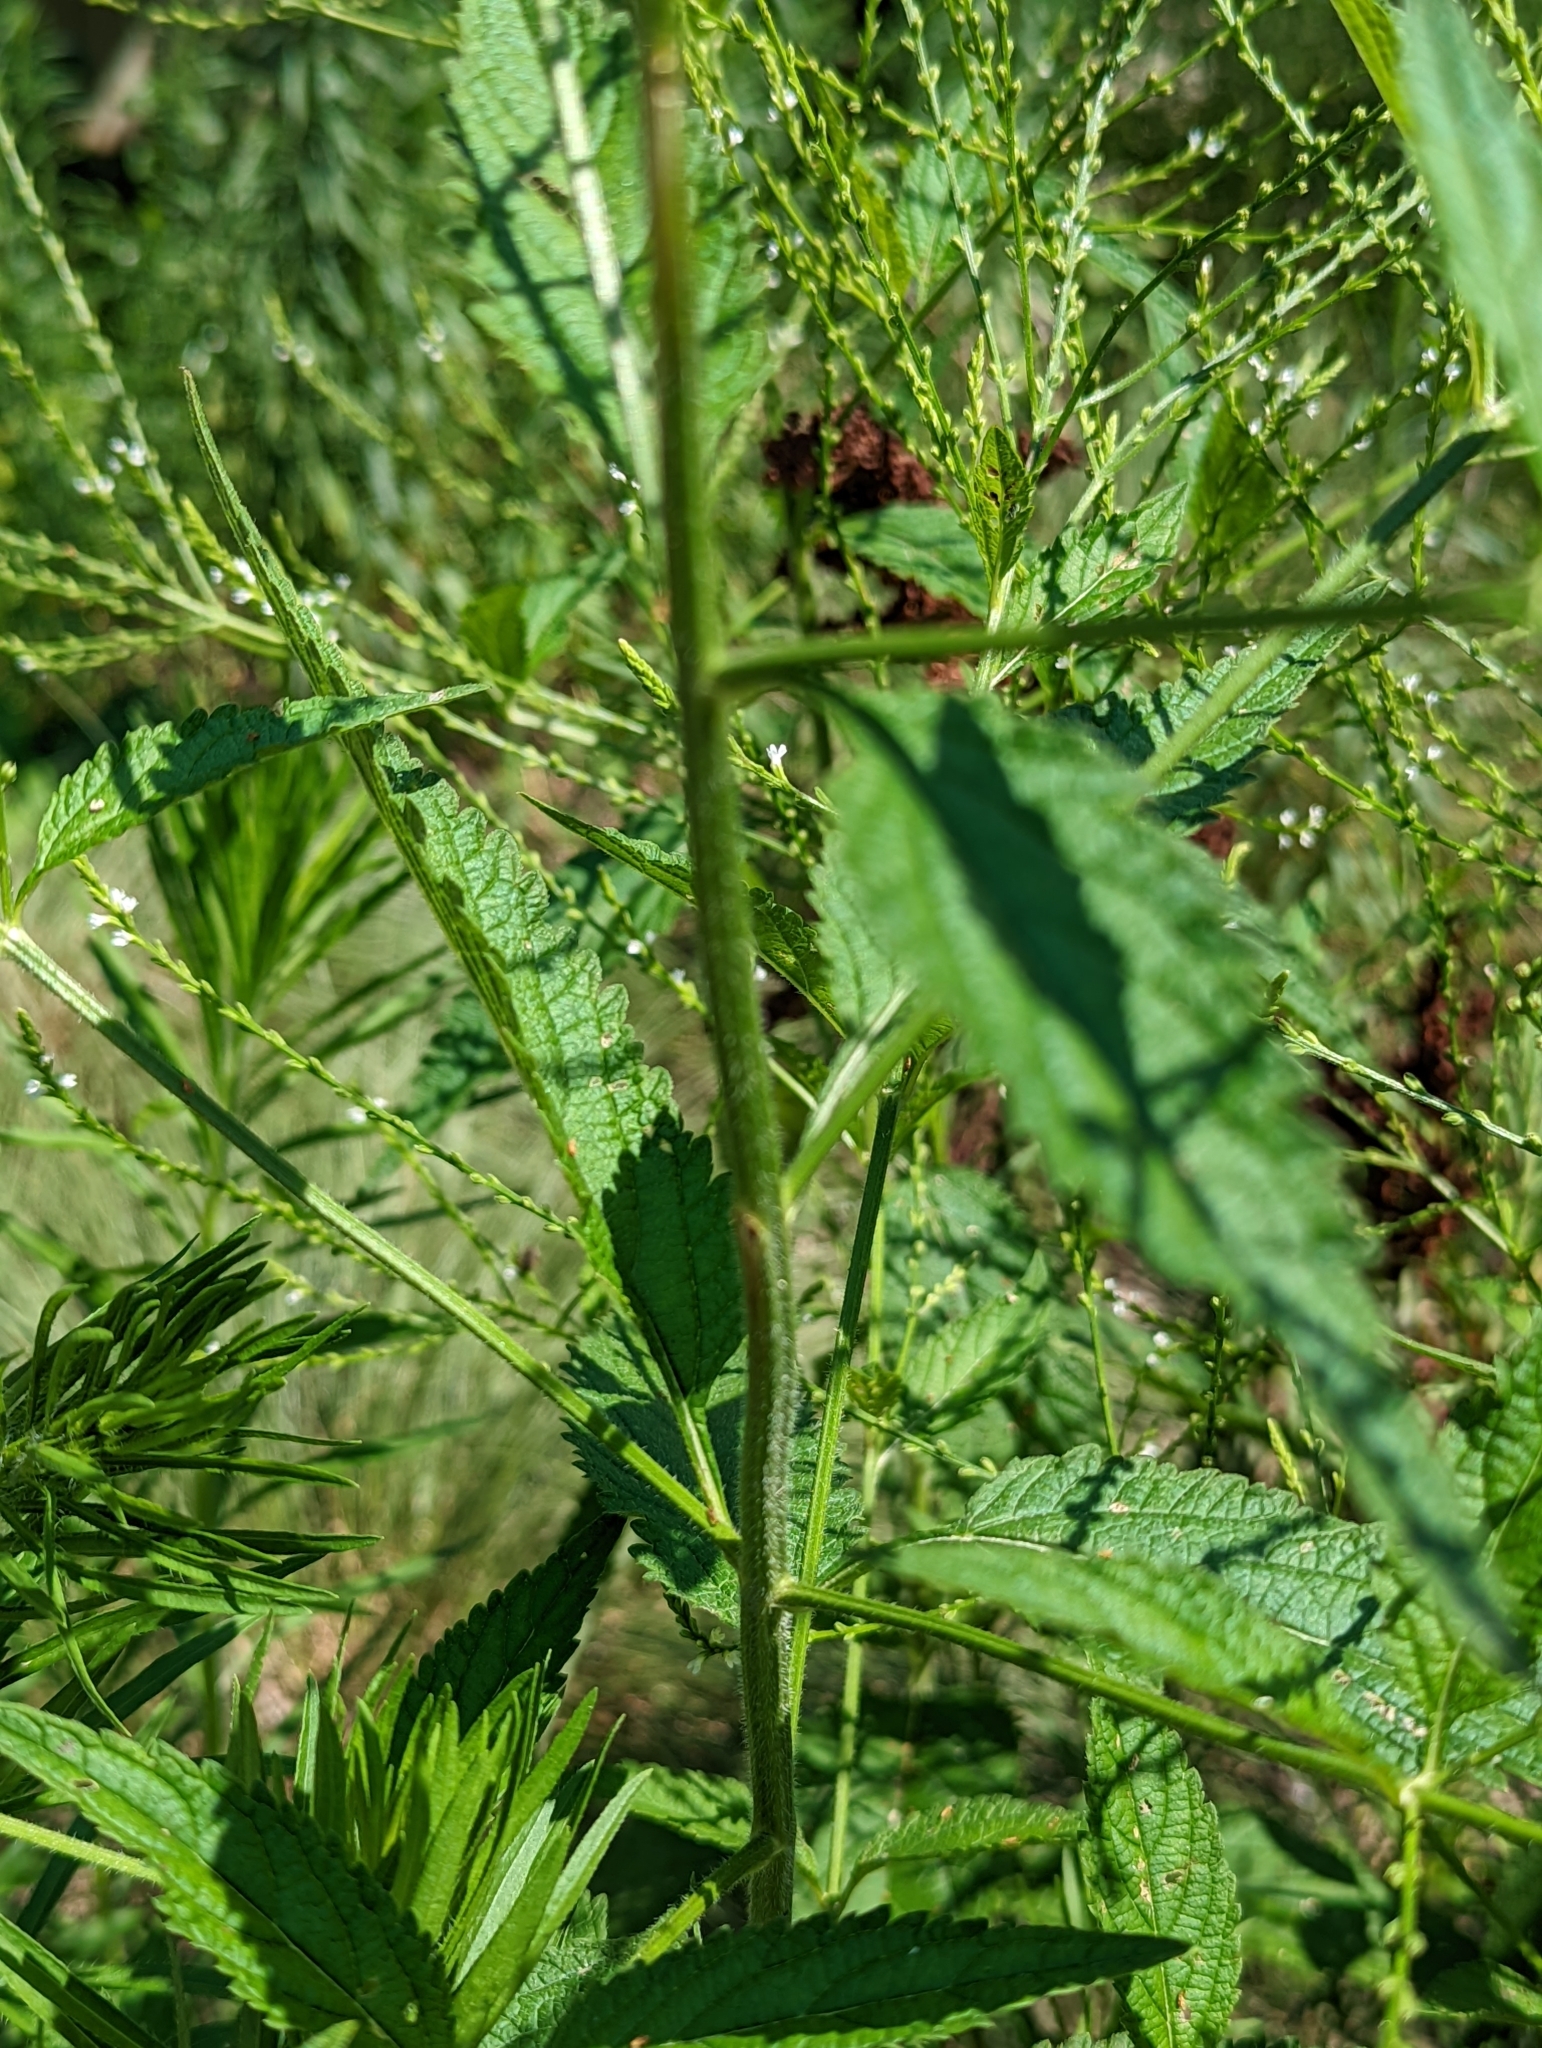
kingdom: Plantae
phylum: Tracheophyta
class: Magnoliopsida
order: Lamiales
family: Verbenaceae
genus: Verbena
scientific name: Verbena urticifolia
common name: Nettle-leaved vervain
